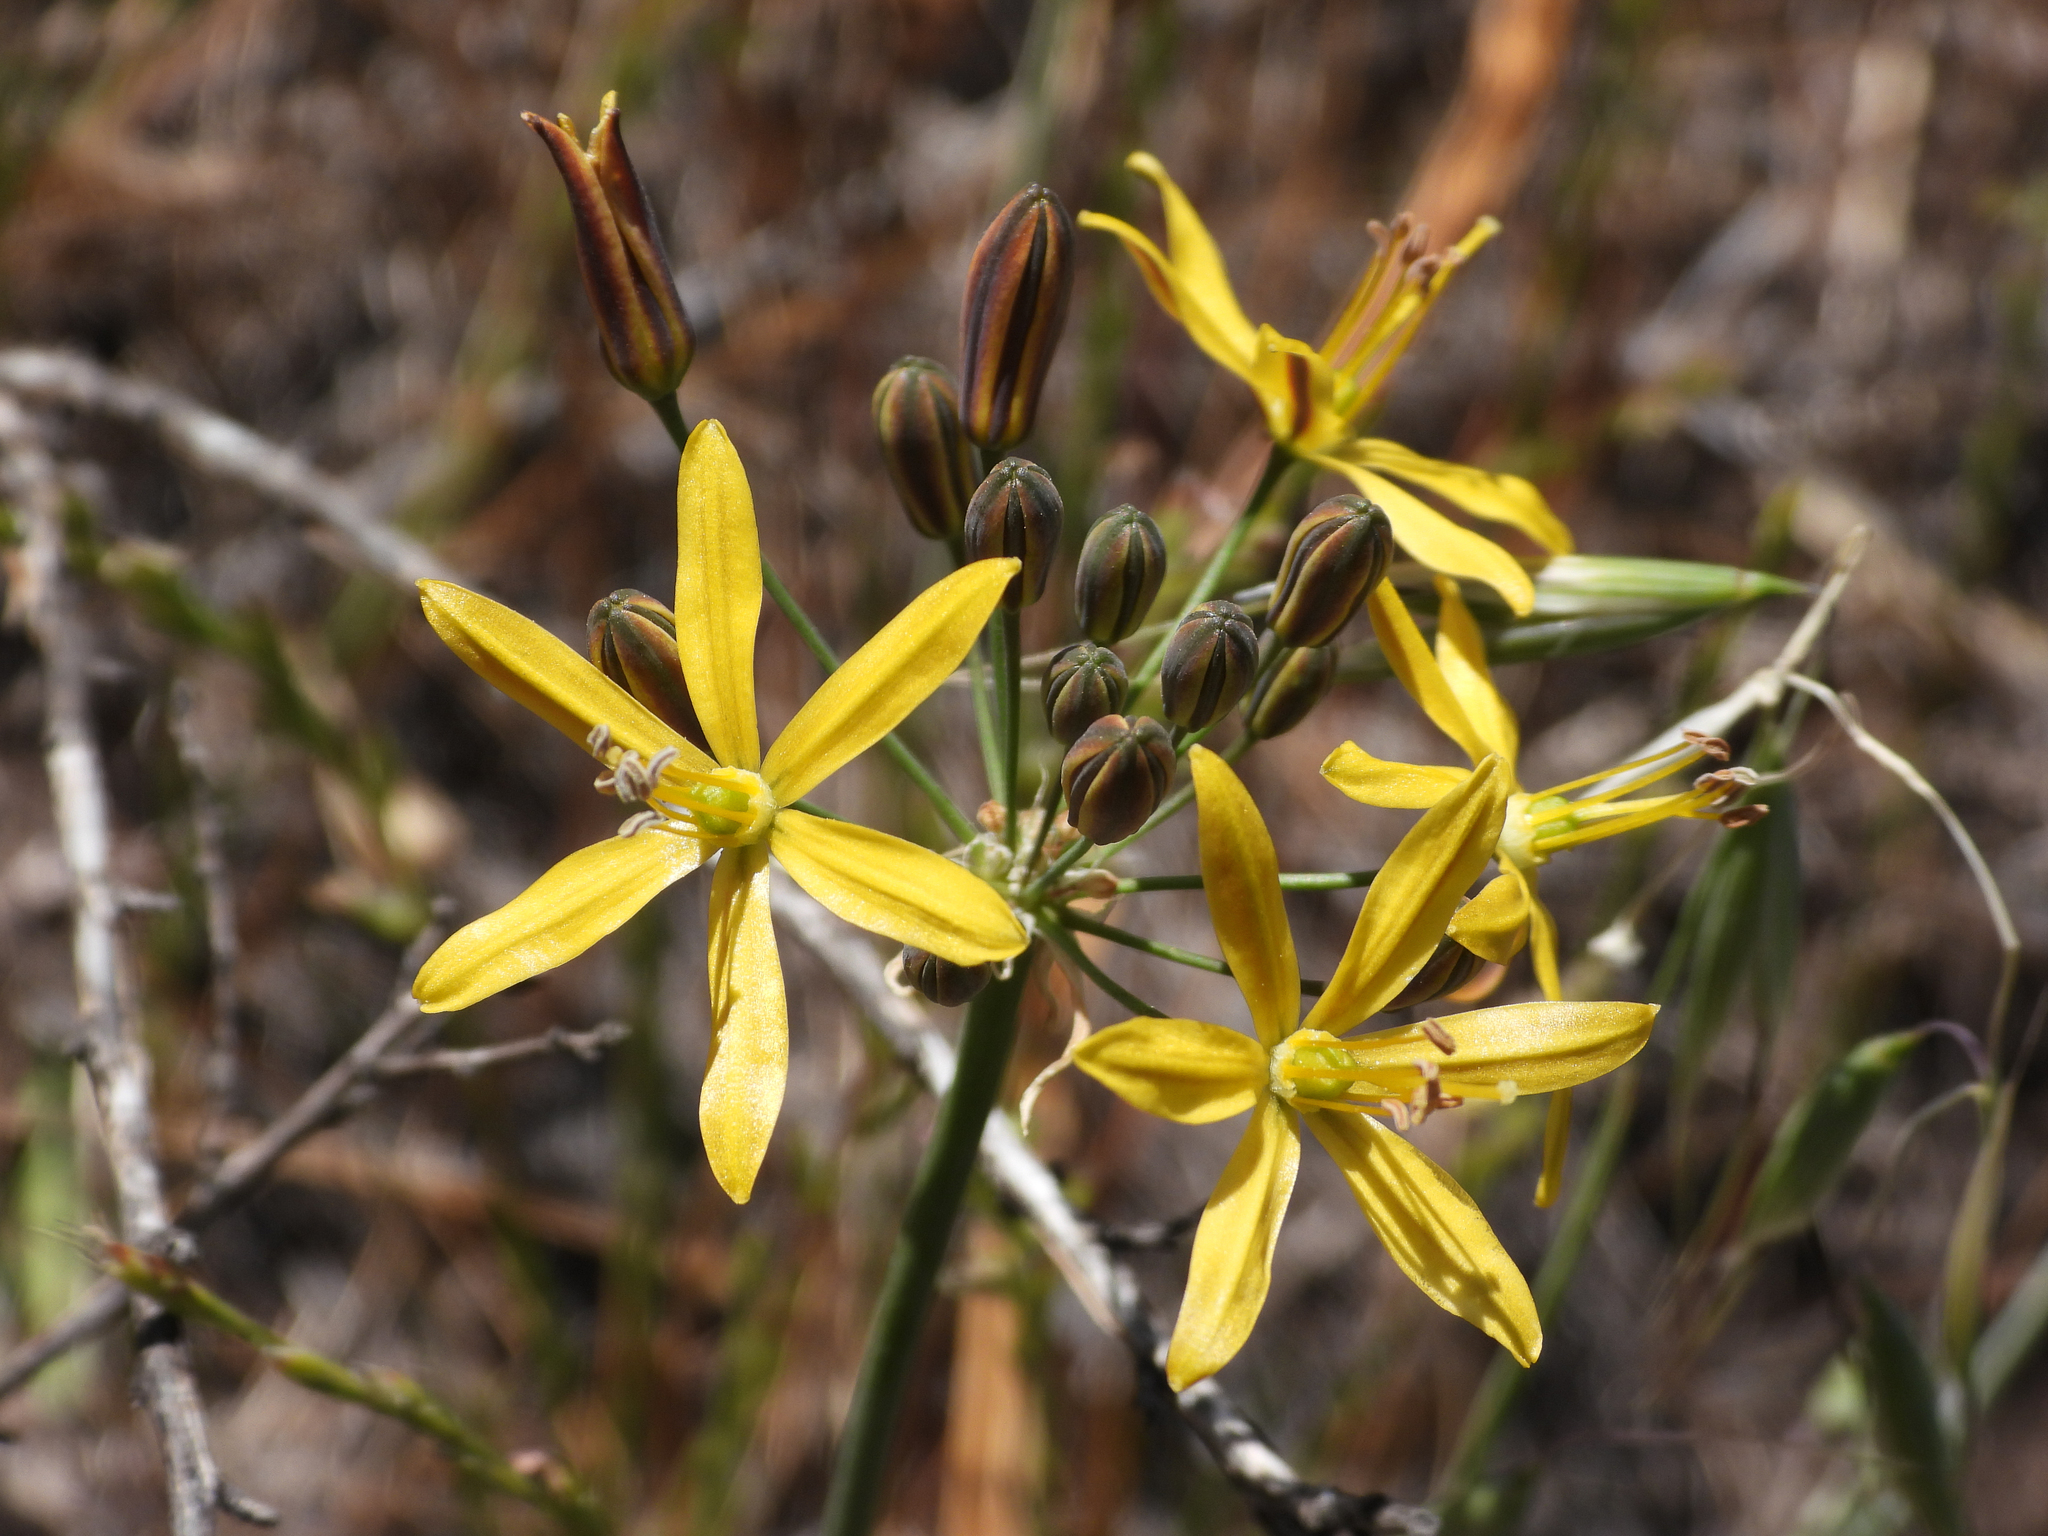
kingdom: Plantae
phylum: Tracheophyta
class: Liliopsida
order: Asparagales
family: Asparagaceae
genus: Bloomeria
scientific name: Bloomeria crocea
